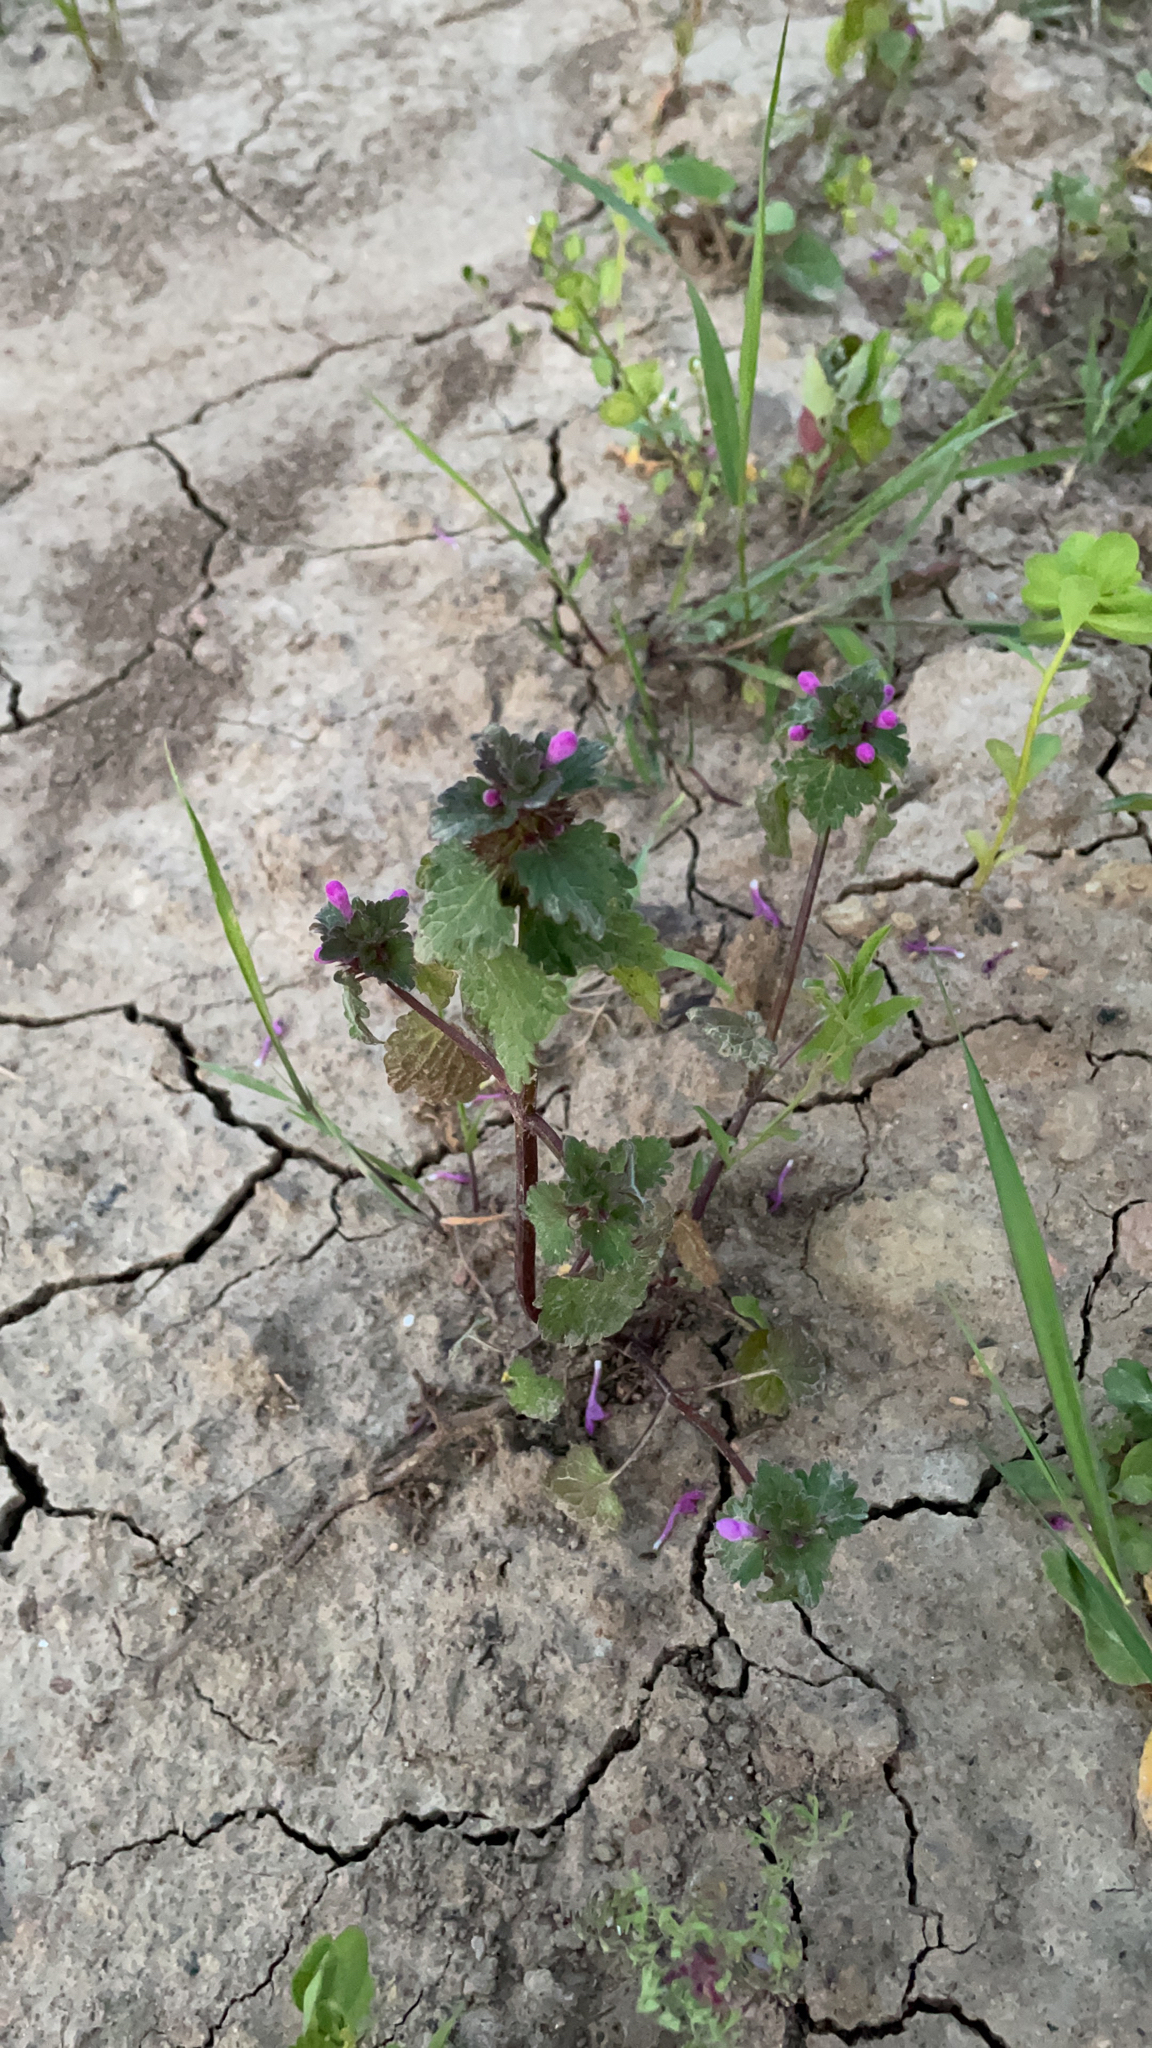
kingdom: Plantae
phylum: Tracheophyta
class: Magnoliopsida
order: Lamiales
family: Lamiaceae
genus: Lamium
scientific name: Lamium hybridum
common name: Cut-leaved dead-nettle
